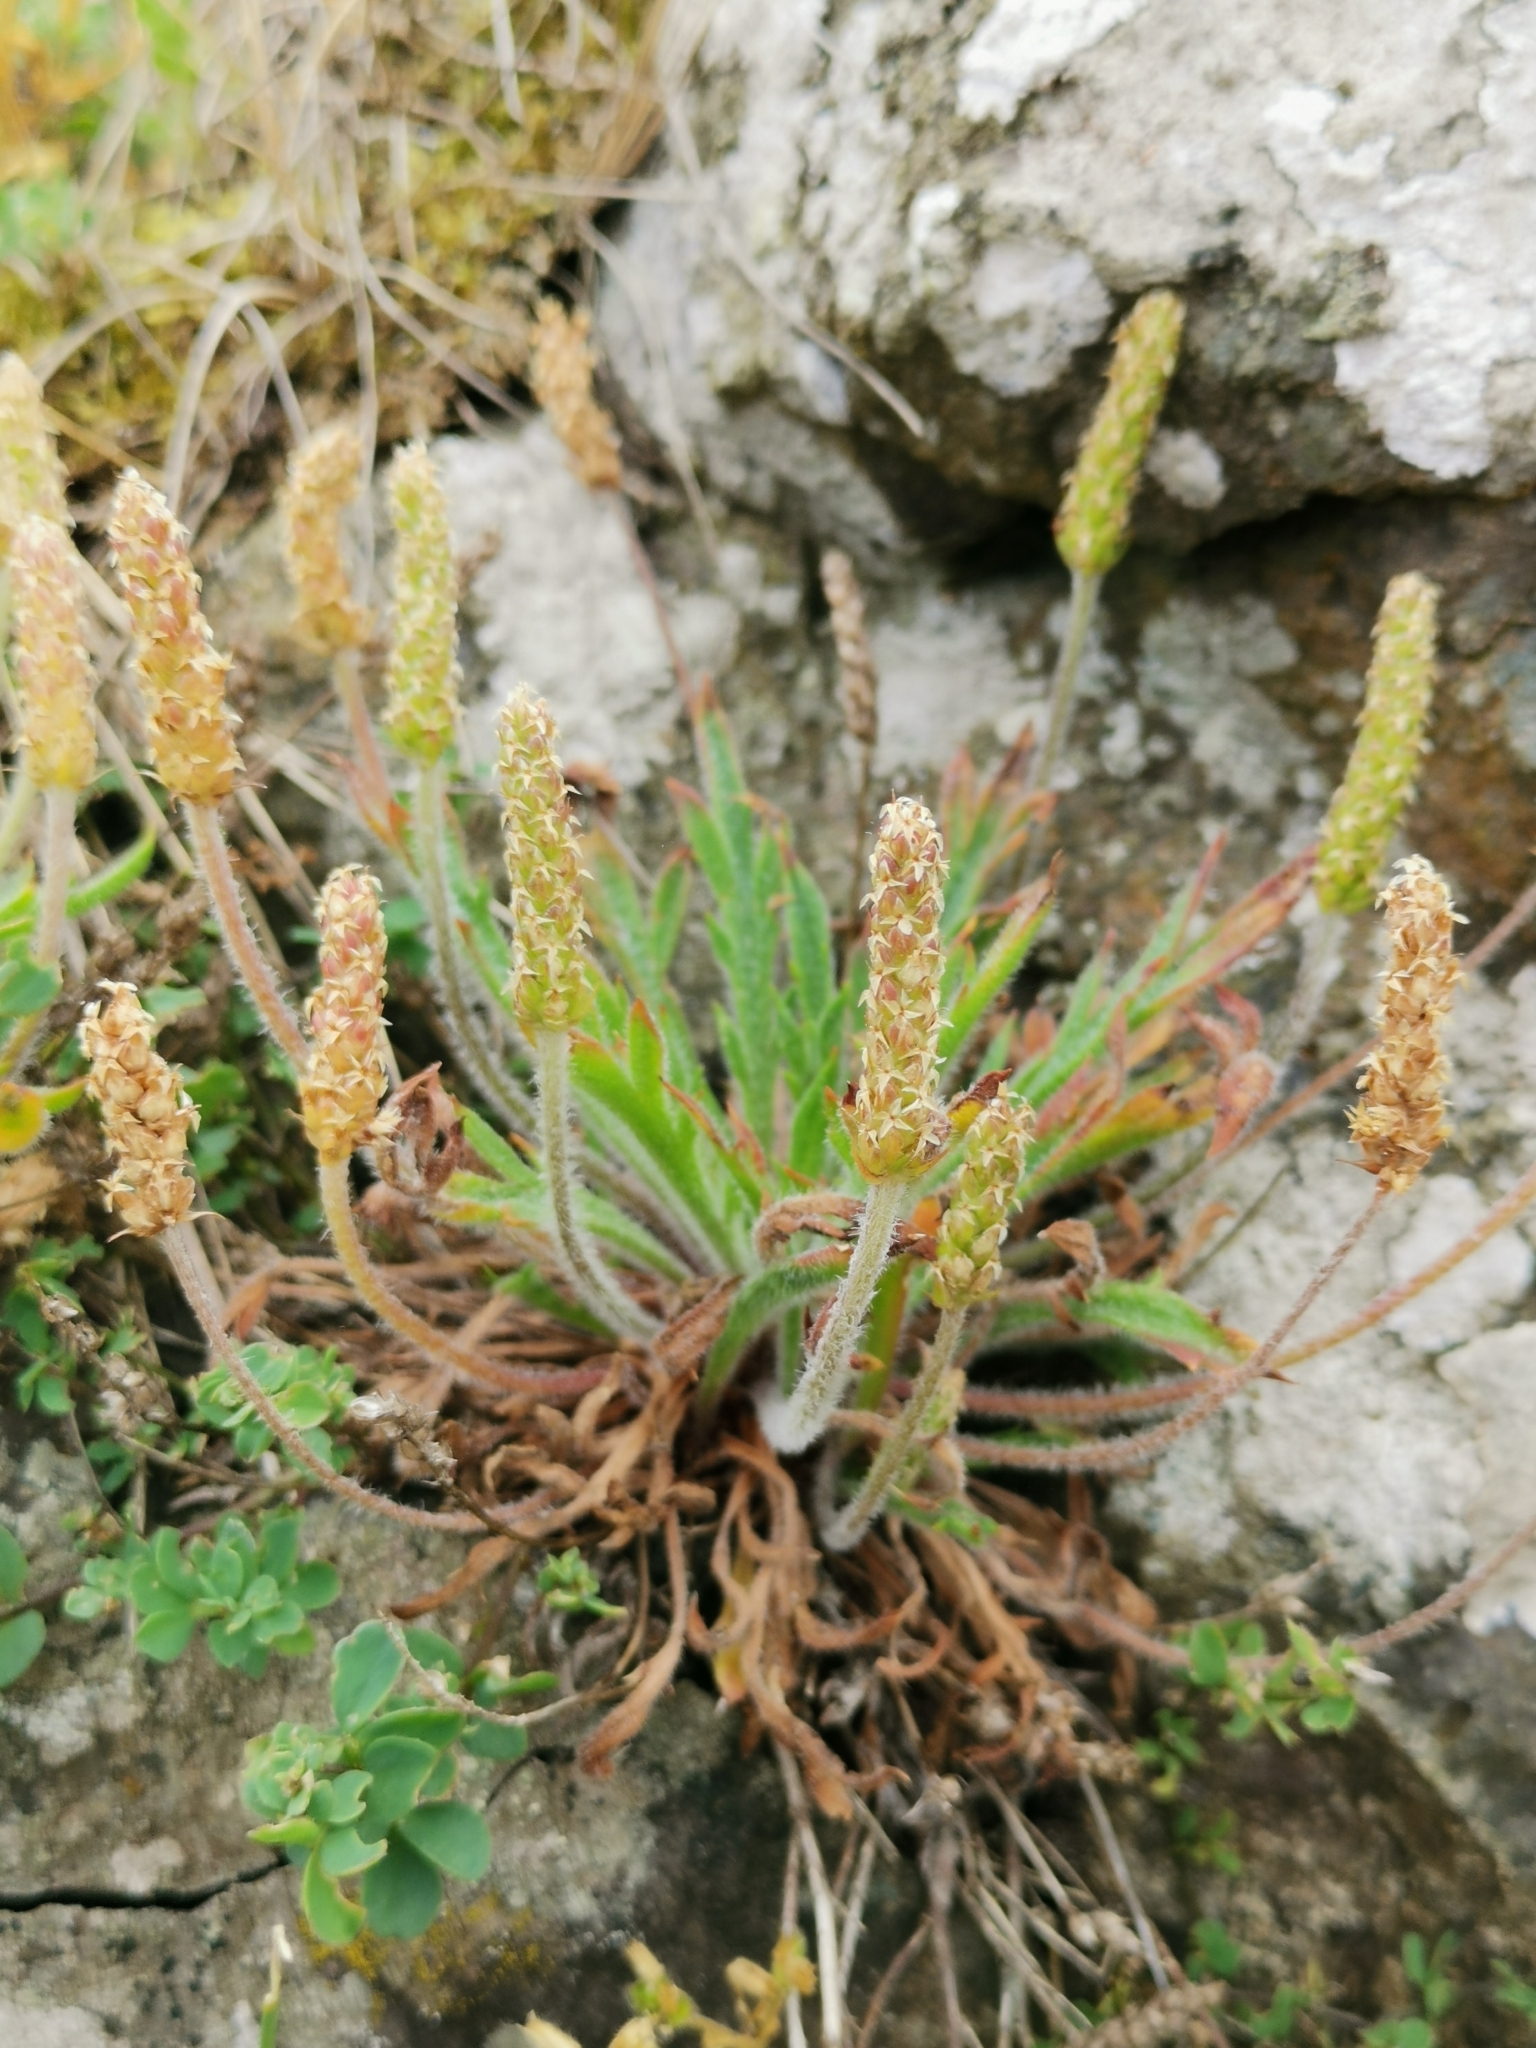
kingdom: Plantae
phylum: Tracheophyta
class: Magnoliopsida
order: Lamiales
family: Plantaginaceae
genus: Plantago
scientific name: Plantago coronopus
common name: Buck's-horn plantain
